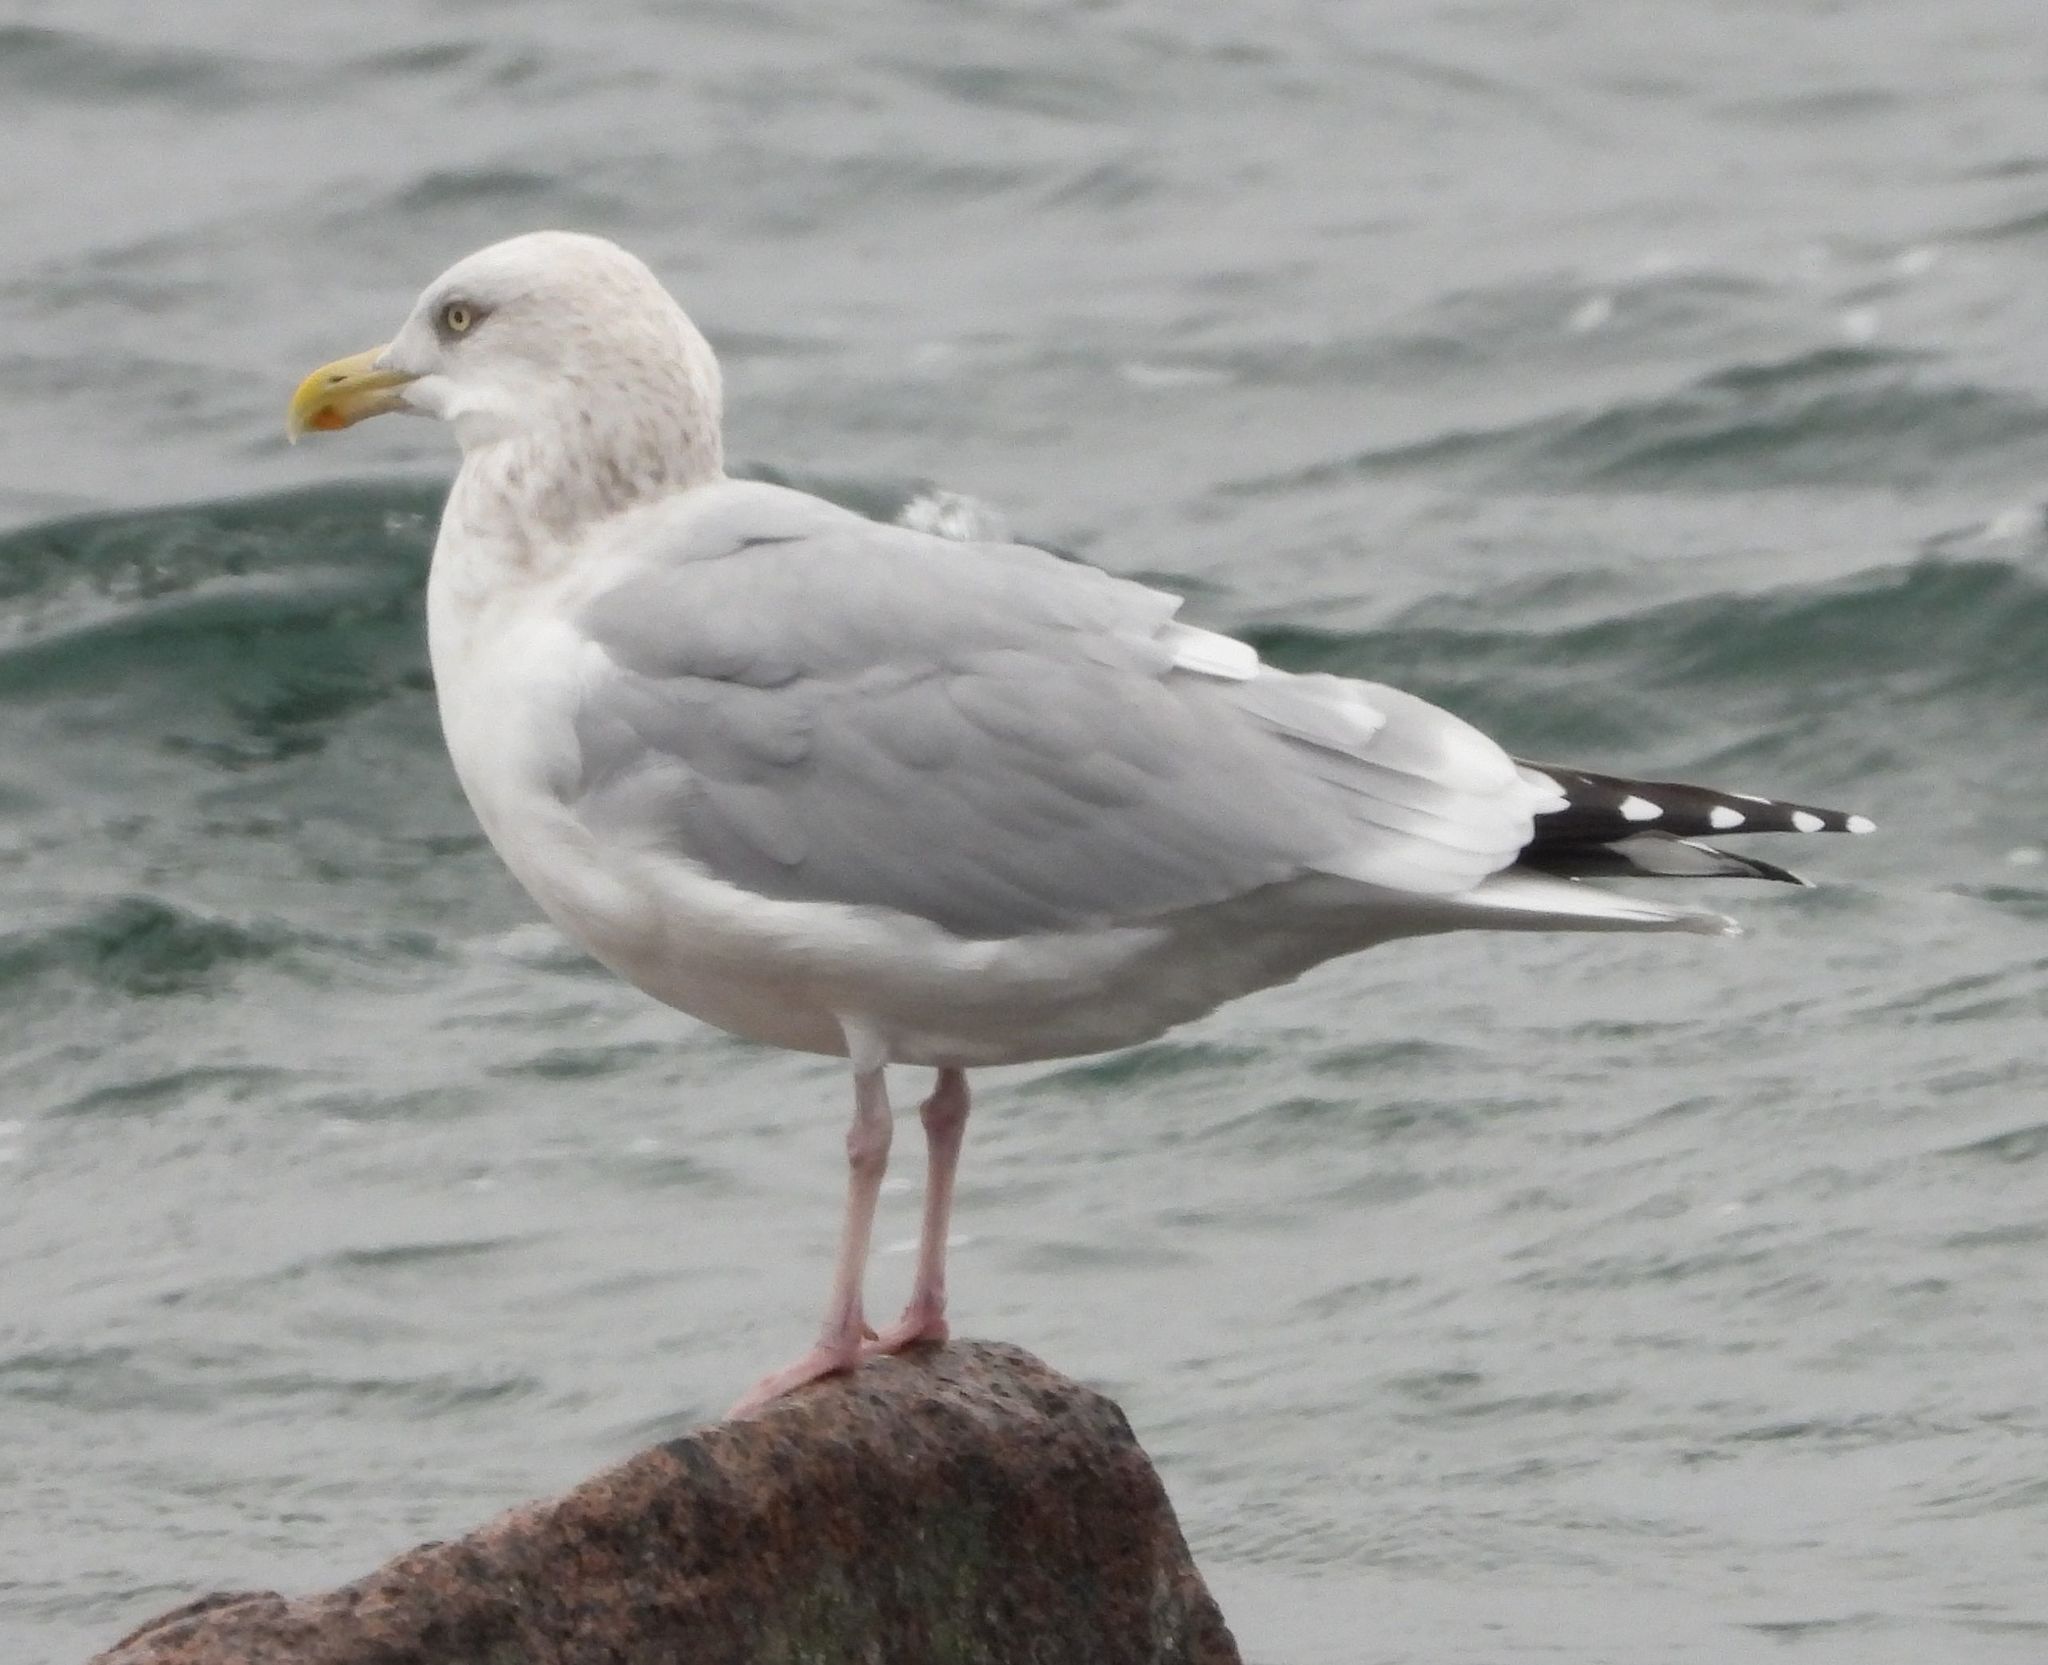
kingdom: Animalia
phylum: Chordata
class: Aves
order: Charadriiformes
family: Laridae
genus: Larus
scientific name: Larus argentatus
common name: Herring gull
